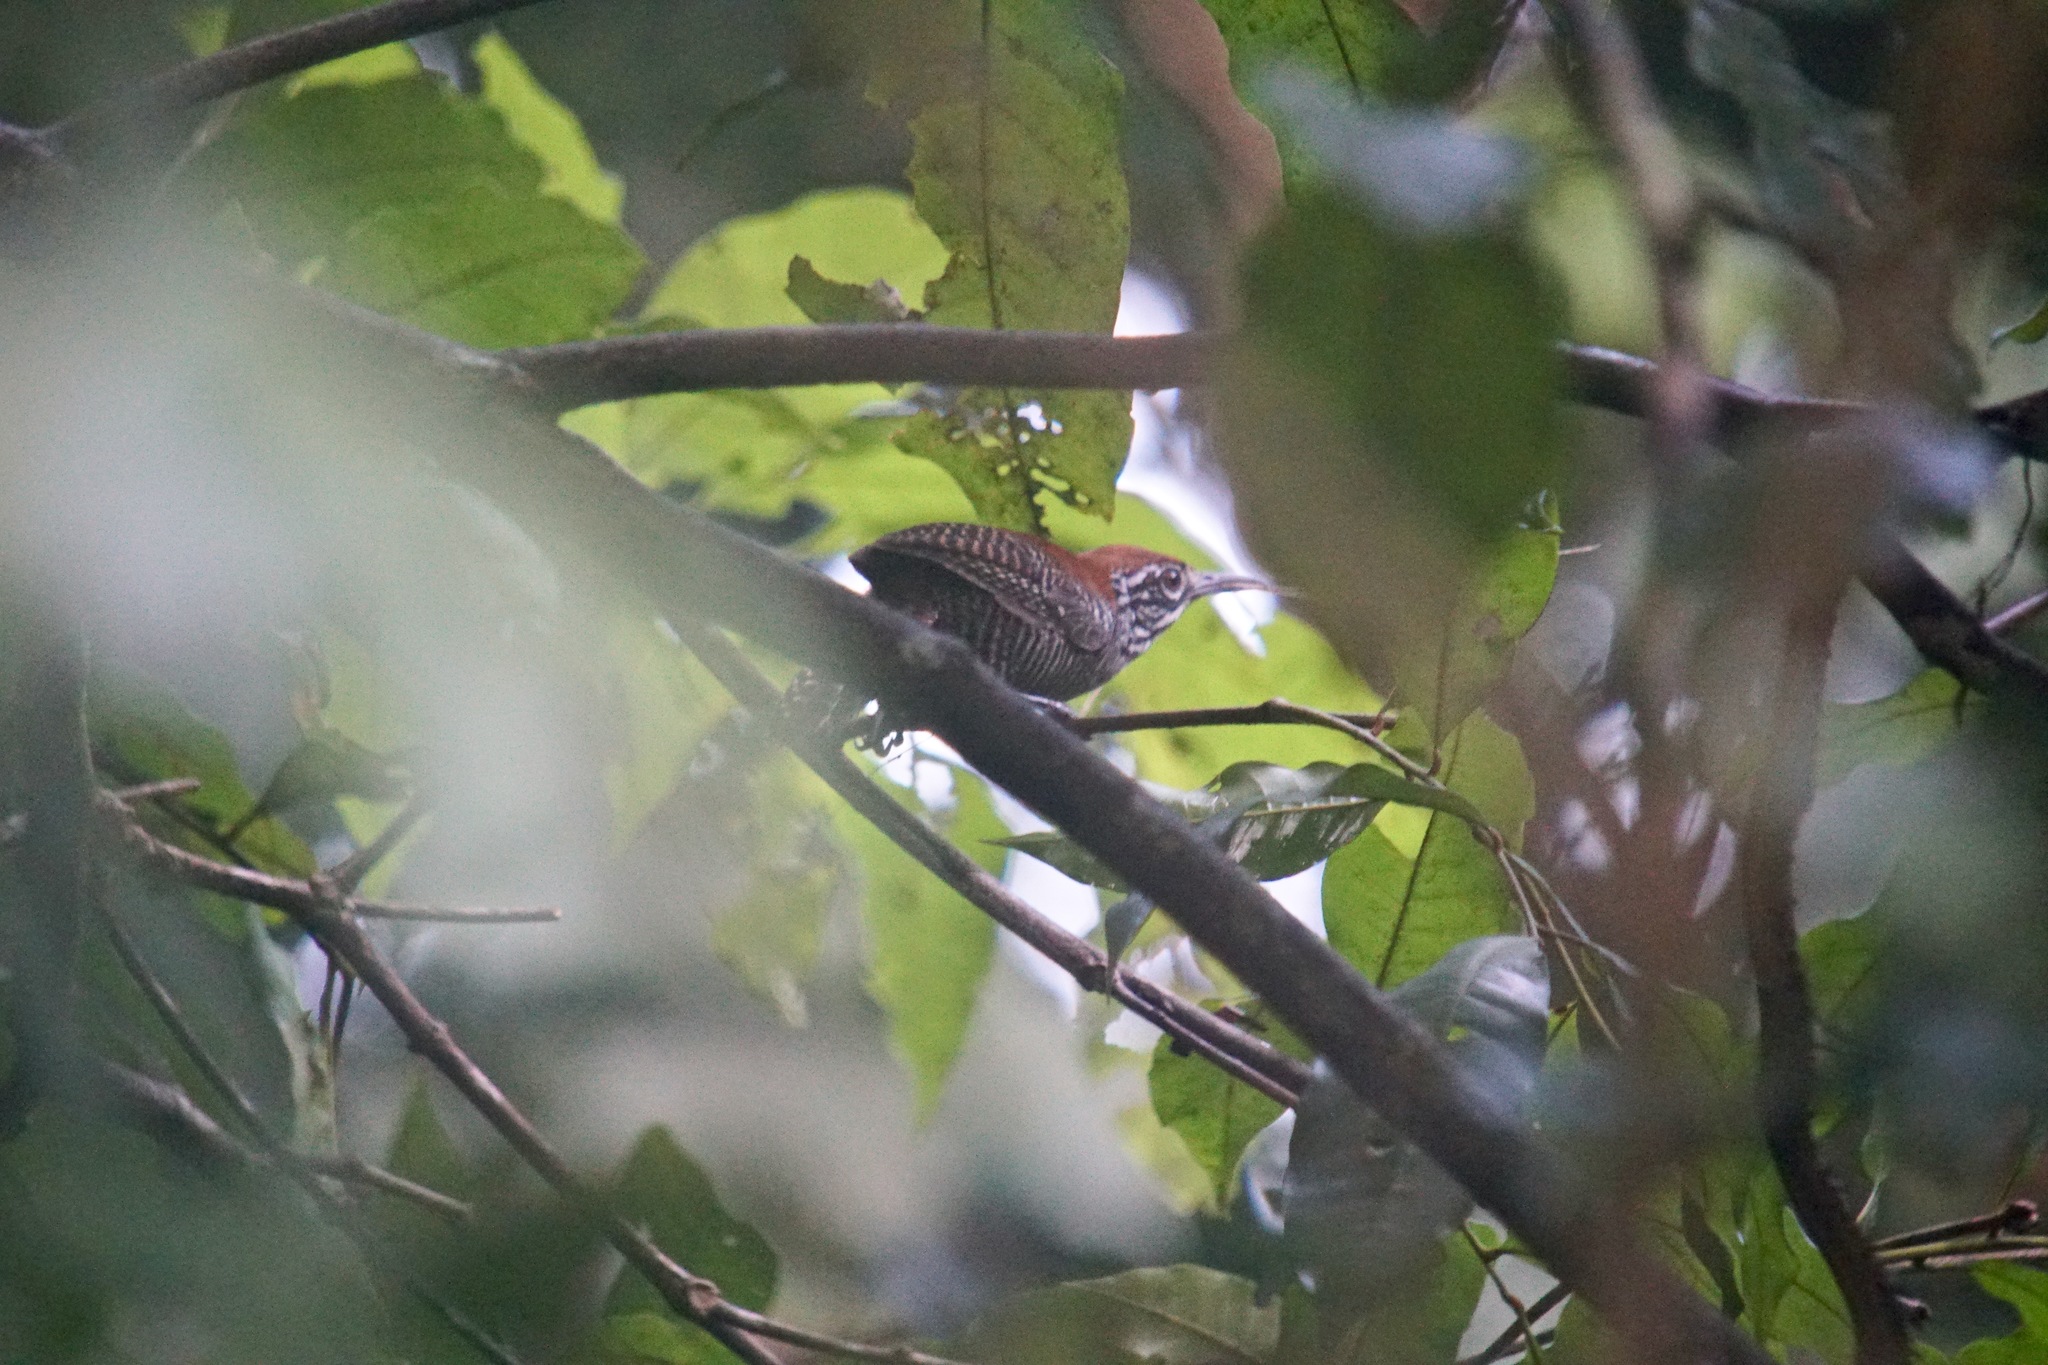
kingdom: Animalia
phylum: Chordata
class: Aves
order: Passeriformes
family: Troglodytidae
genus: Cantorchilus
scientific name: Cantorchilus semibadius
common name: Riverside wren
